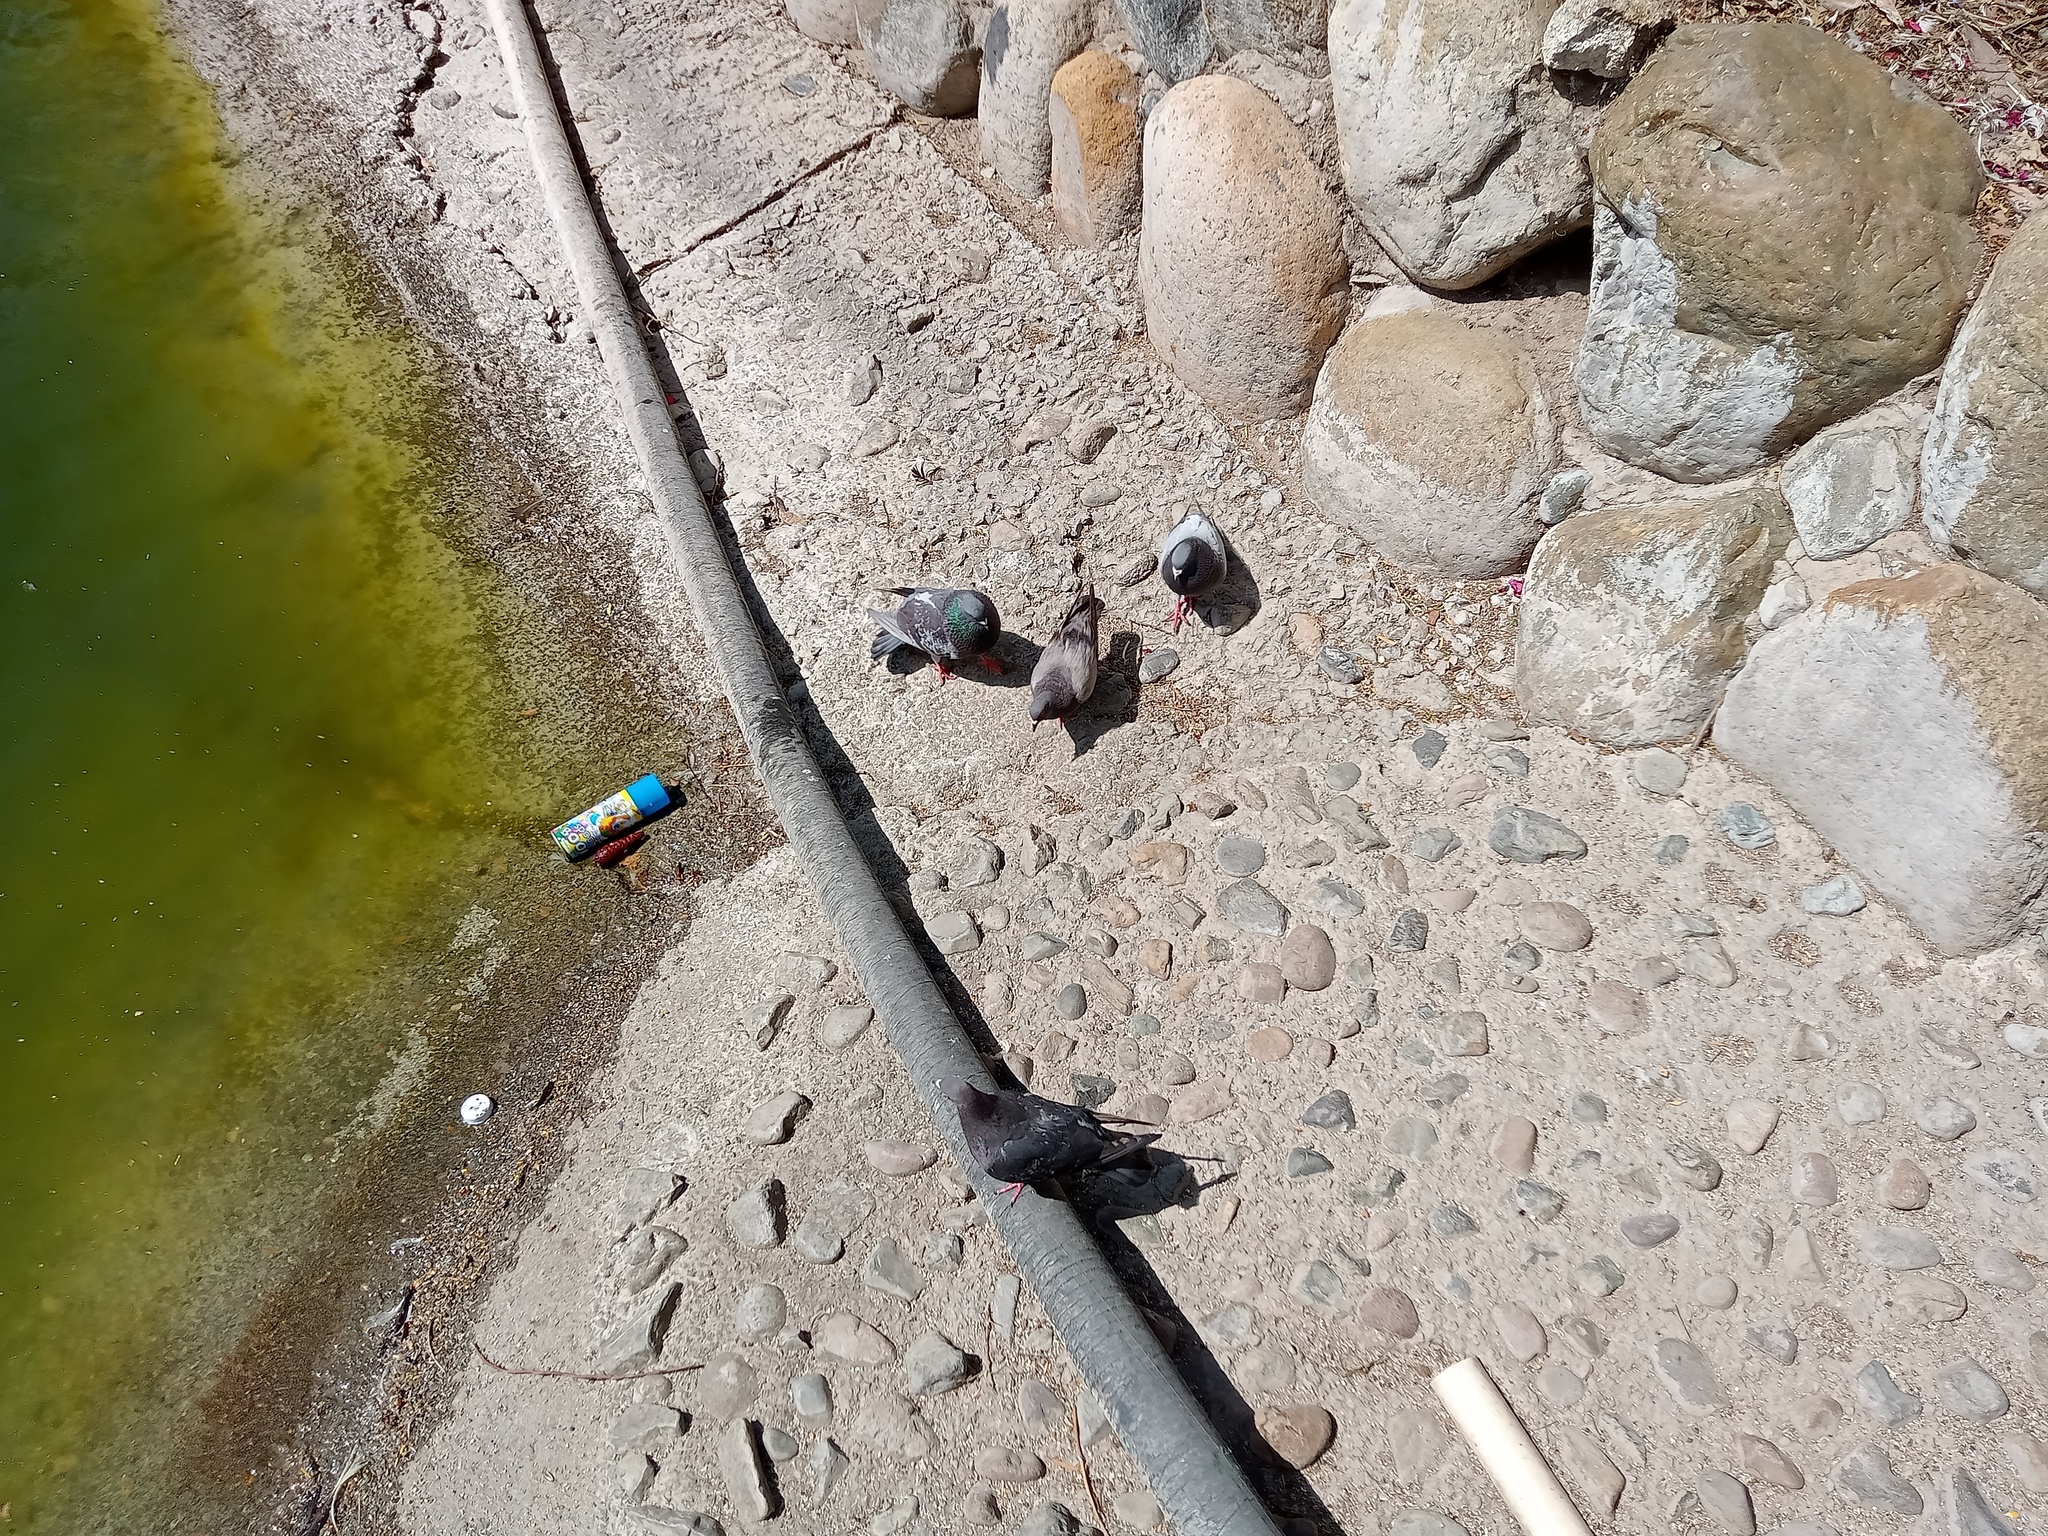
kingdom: Animalia
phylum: Chordata
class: Aves
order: Columbiformes
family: Columbidae
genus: Columba
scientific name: Columba livia
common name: Rock pigeon
